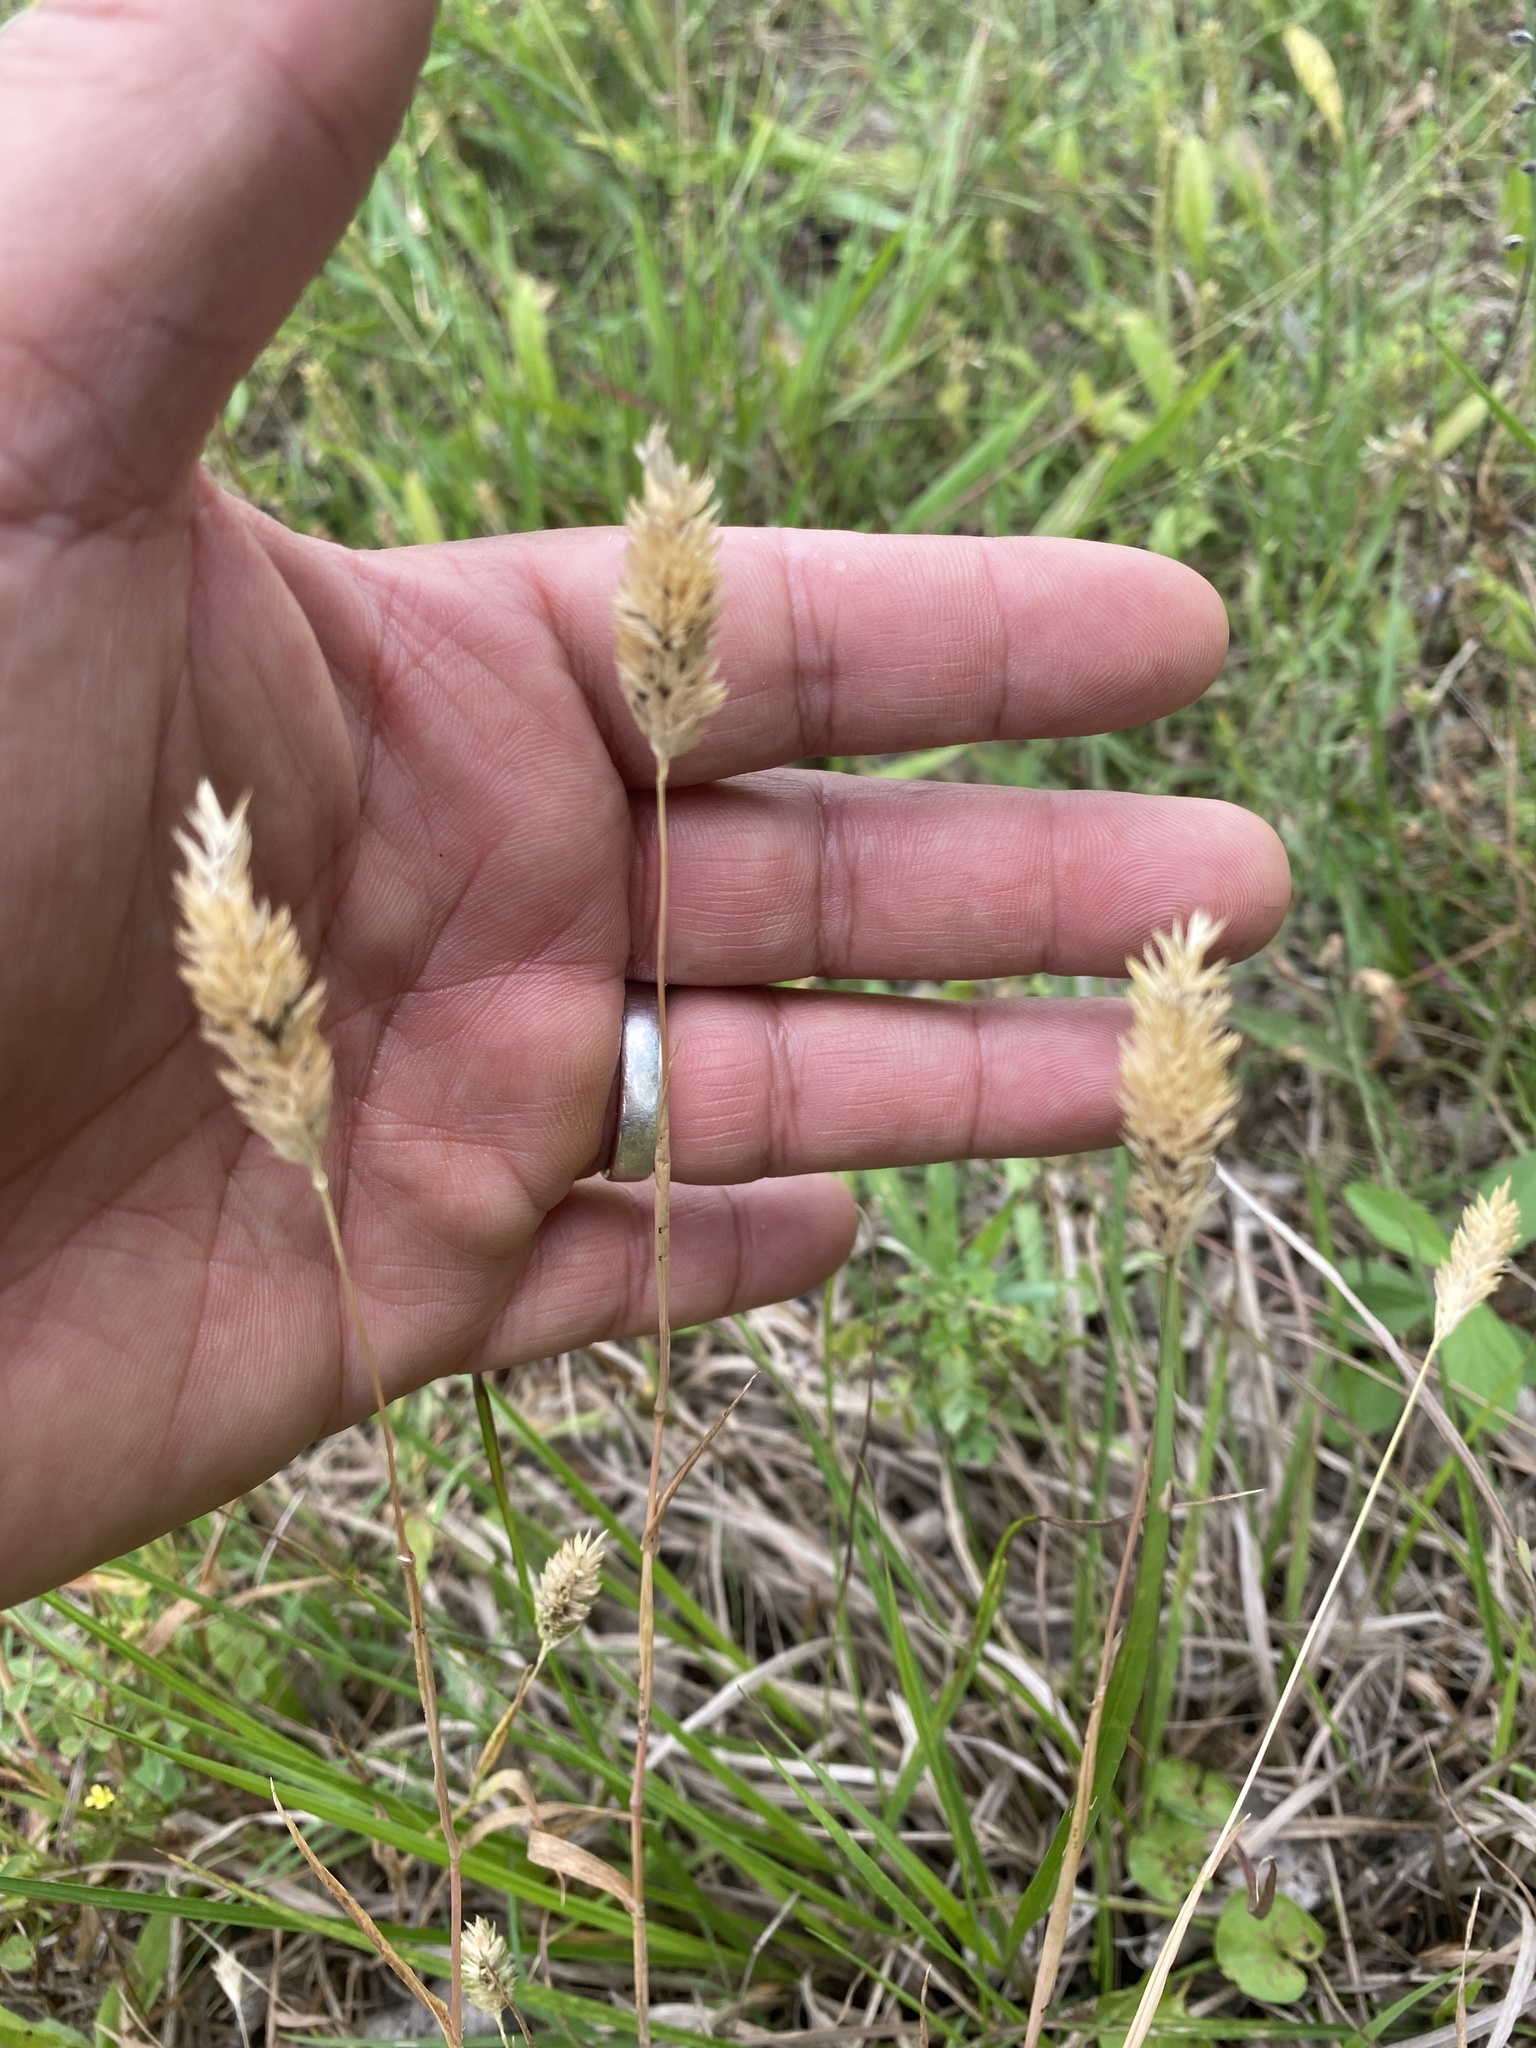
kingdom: Plantae
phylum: Tracheophyta
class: Liliopsida
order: Poales
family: Poaceae
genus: Phalaris
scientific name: Phalaris caroliniana
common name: May grass
